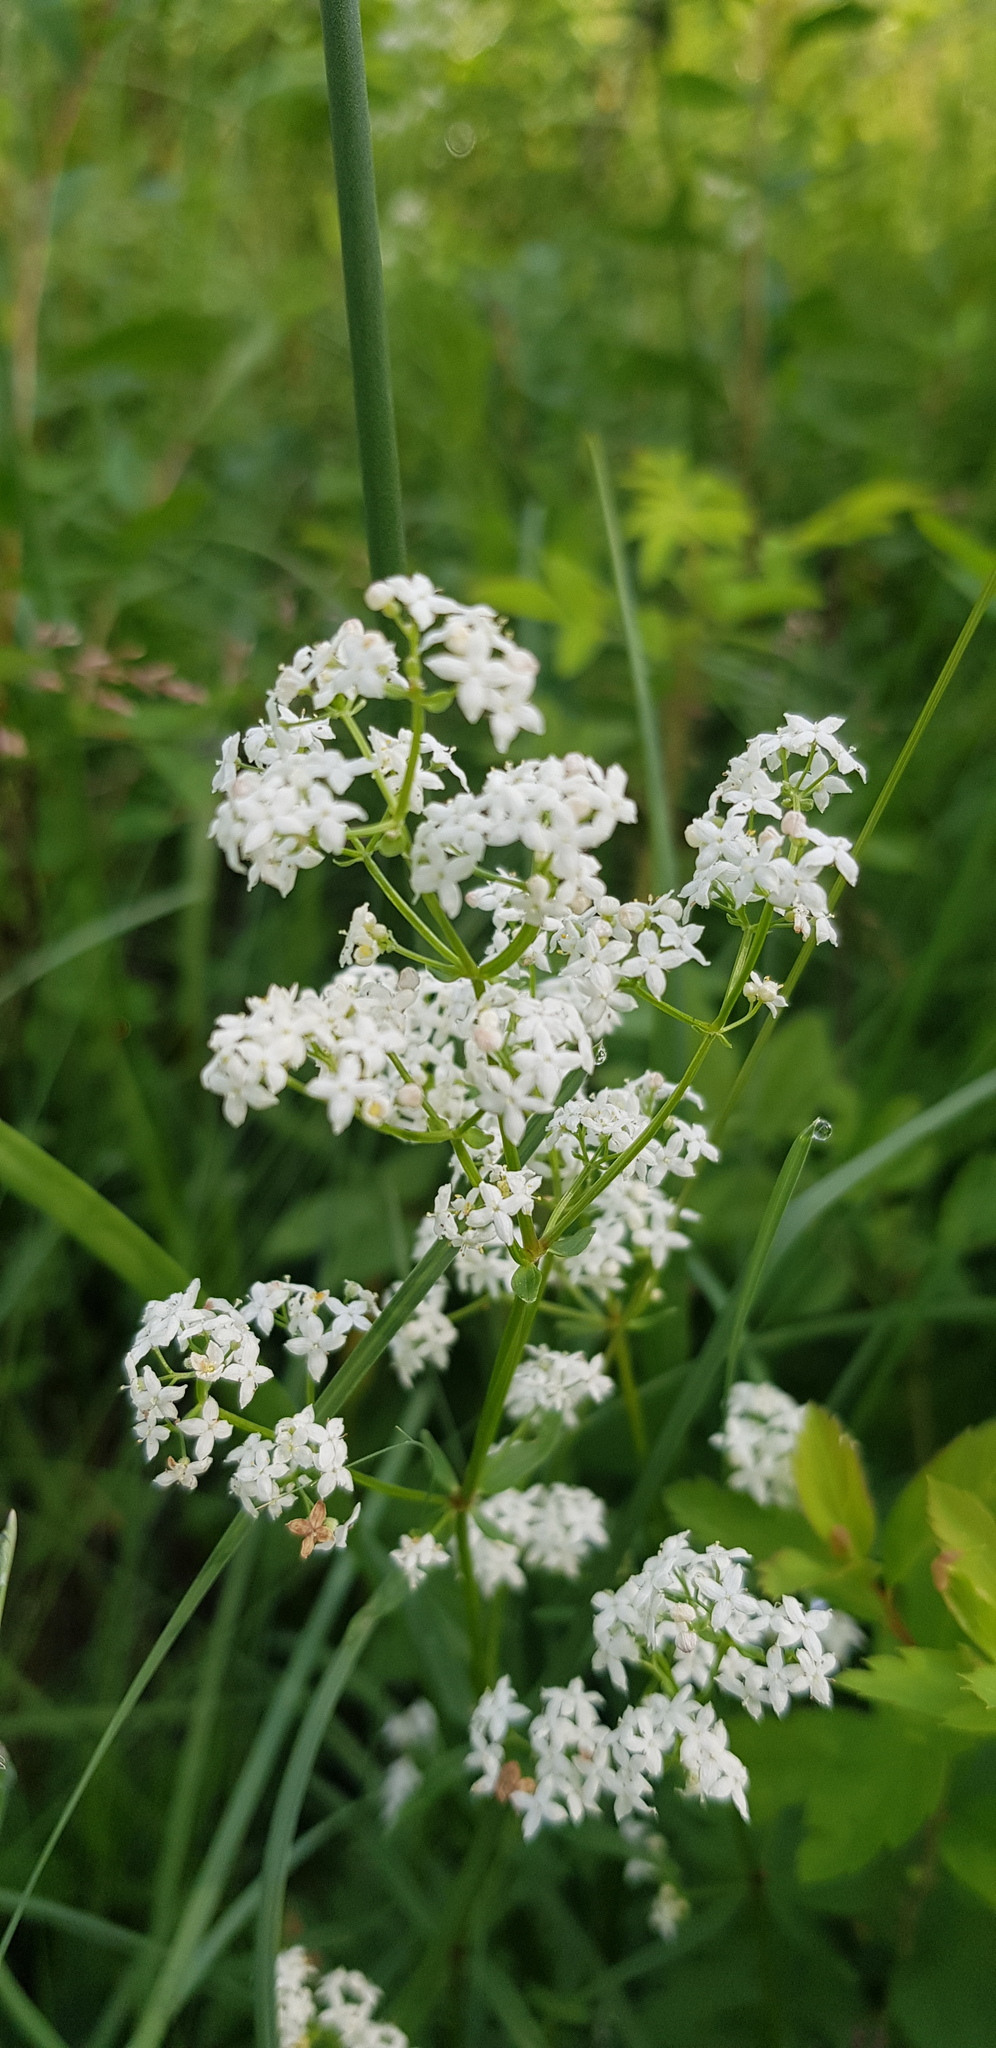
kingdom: Plantae
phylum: Tracheophyta
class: Magnoliopsida
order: Gentianales
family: Rubiaceae
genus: Galium
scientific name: Galium boreale
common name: Northern bedstraw
